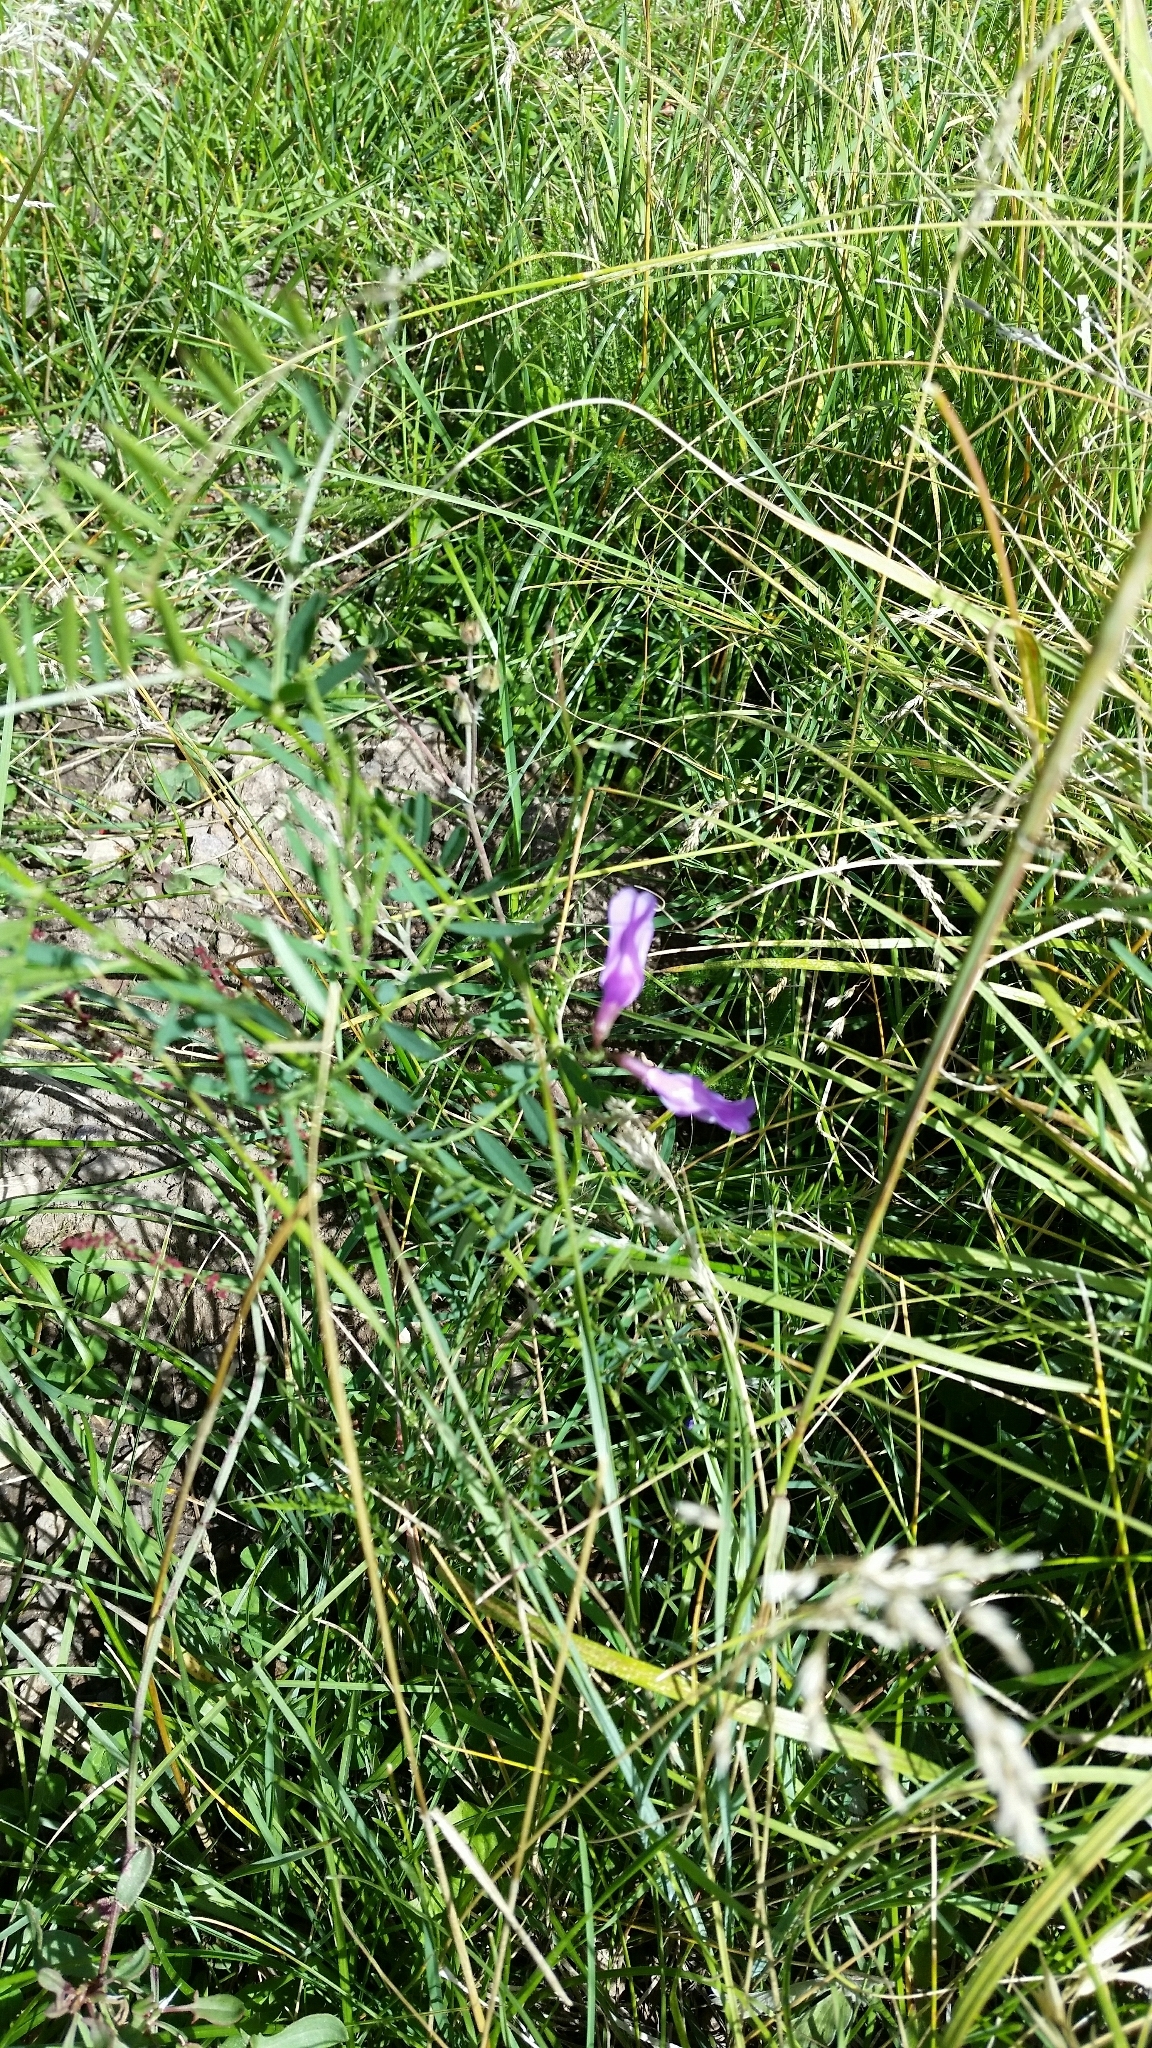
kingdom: Plantae
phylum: Tracheophyta
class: Magnoliopsida
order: Fabales
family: Fabaceae
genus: Vicia
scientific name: Vicia americana
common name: American vetch
